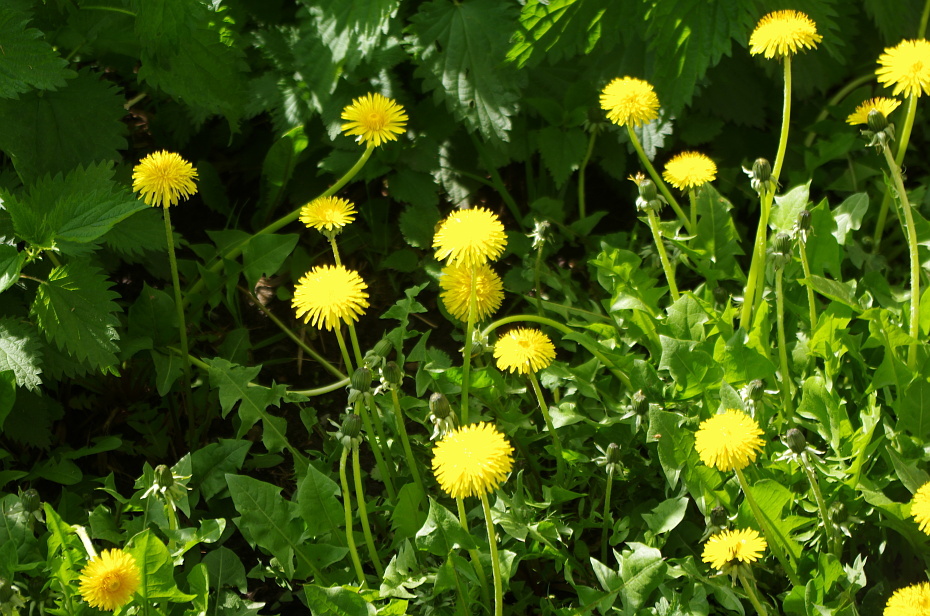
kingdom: Plantae
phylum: Tracheophyta
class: Magnoliopsida
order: Asterales
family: Asteraceae
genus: Taraxacum
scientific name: Taraxacum officinale
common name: Common dandelion
